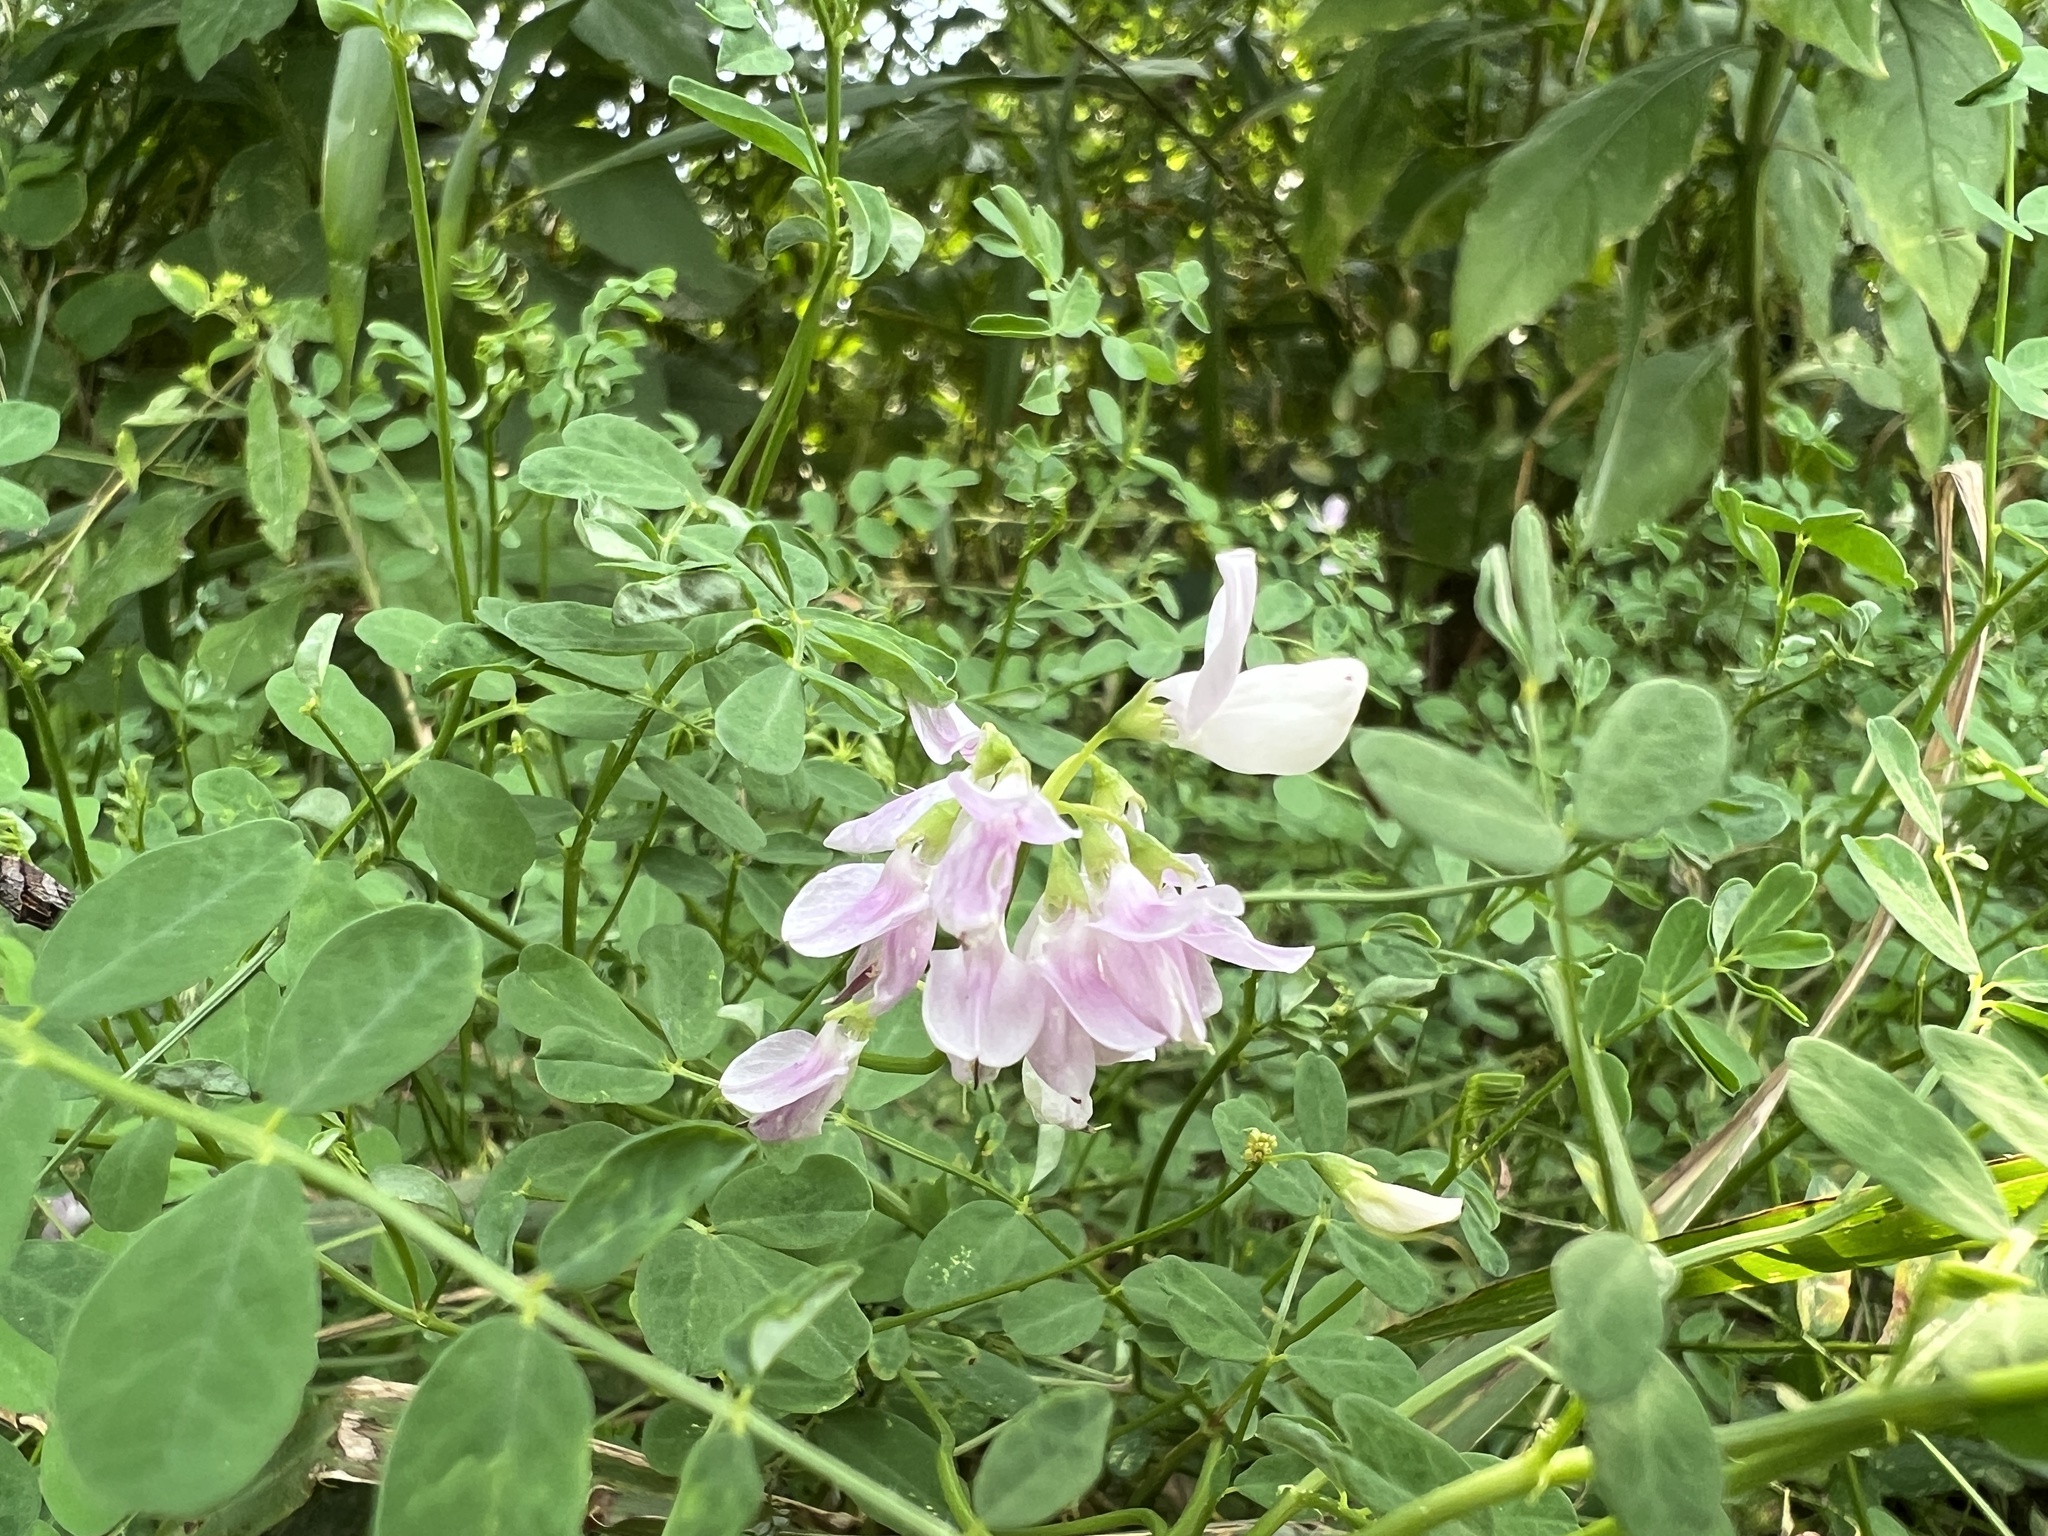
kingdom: Plantae
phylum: Tracheophyta
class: Magnoliopsida
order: Fabales
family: Fabaceae
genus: Coronilla
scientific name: Coronilla varia
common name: Crownvetch
